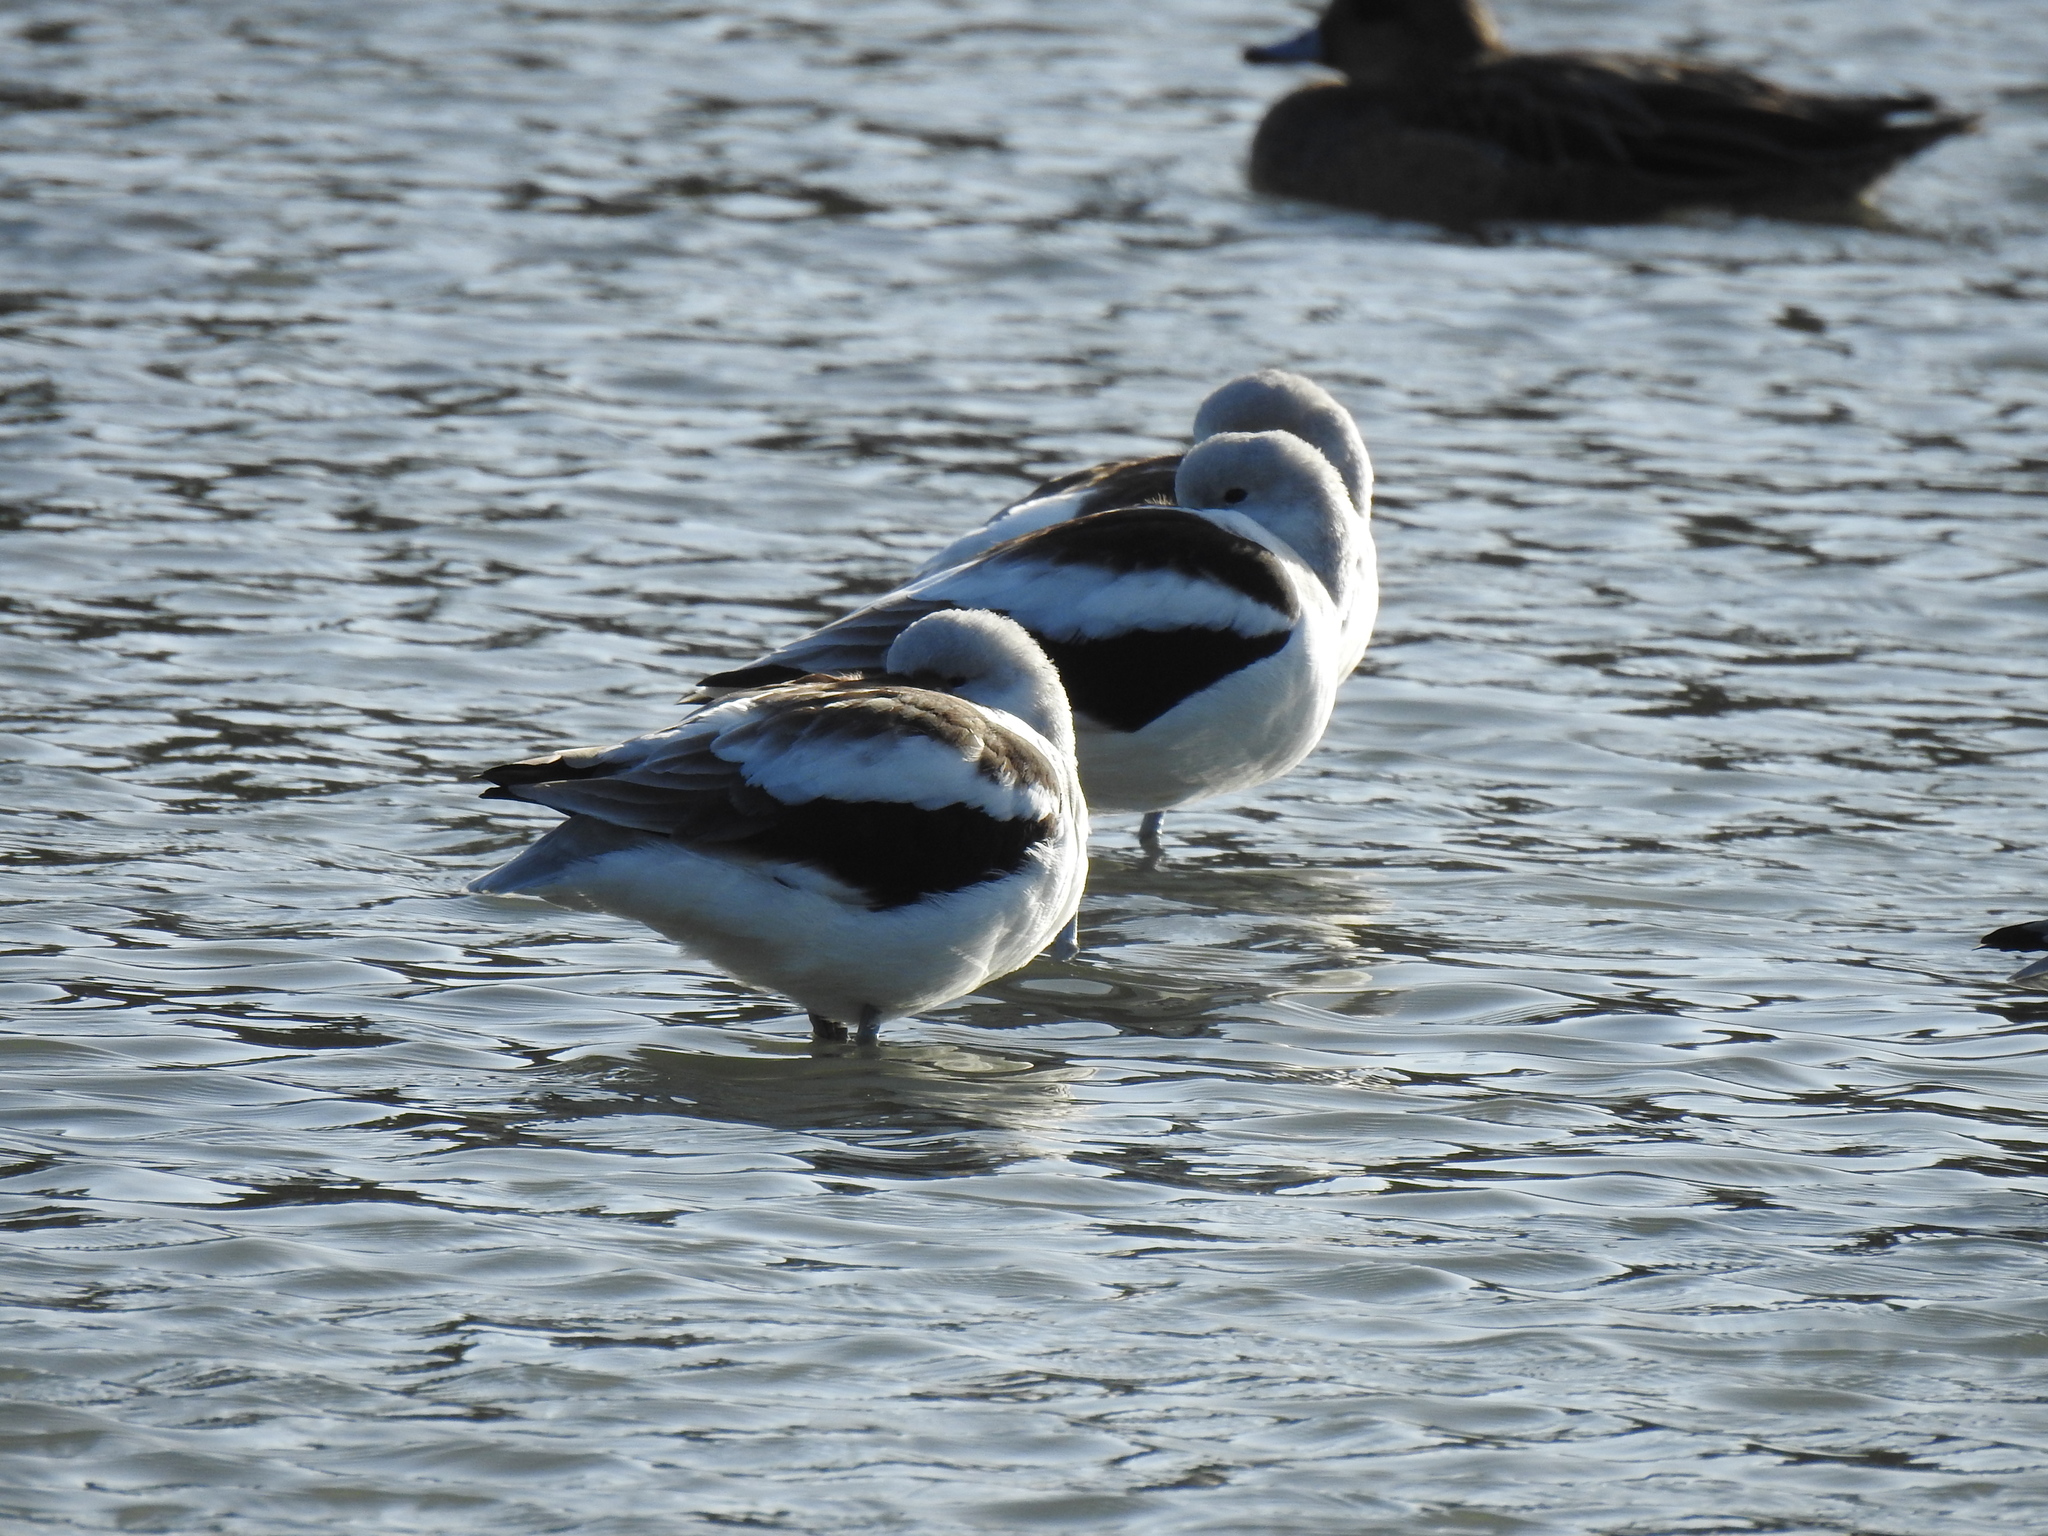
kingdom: Animalia
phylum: Chordata
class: Aves
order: Charadriiformes
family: Recurvirostridae
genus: Recurvirostra
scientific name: Recurvirostra americana
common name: American avocet
